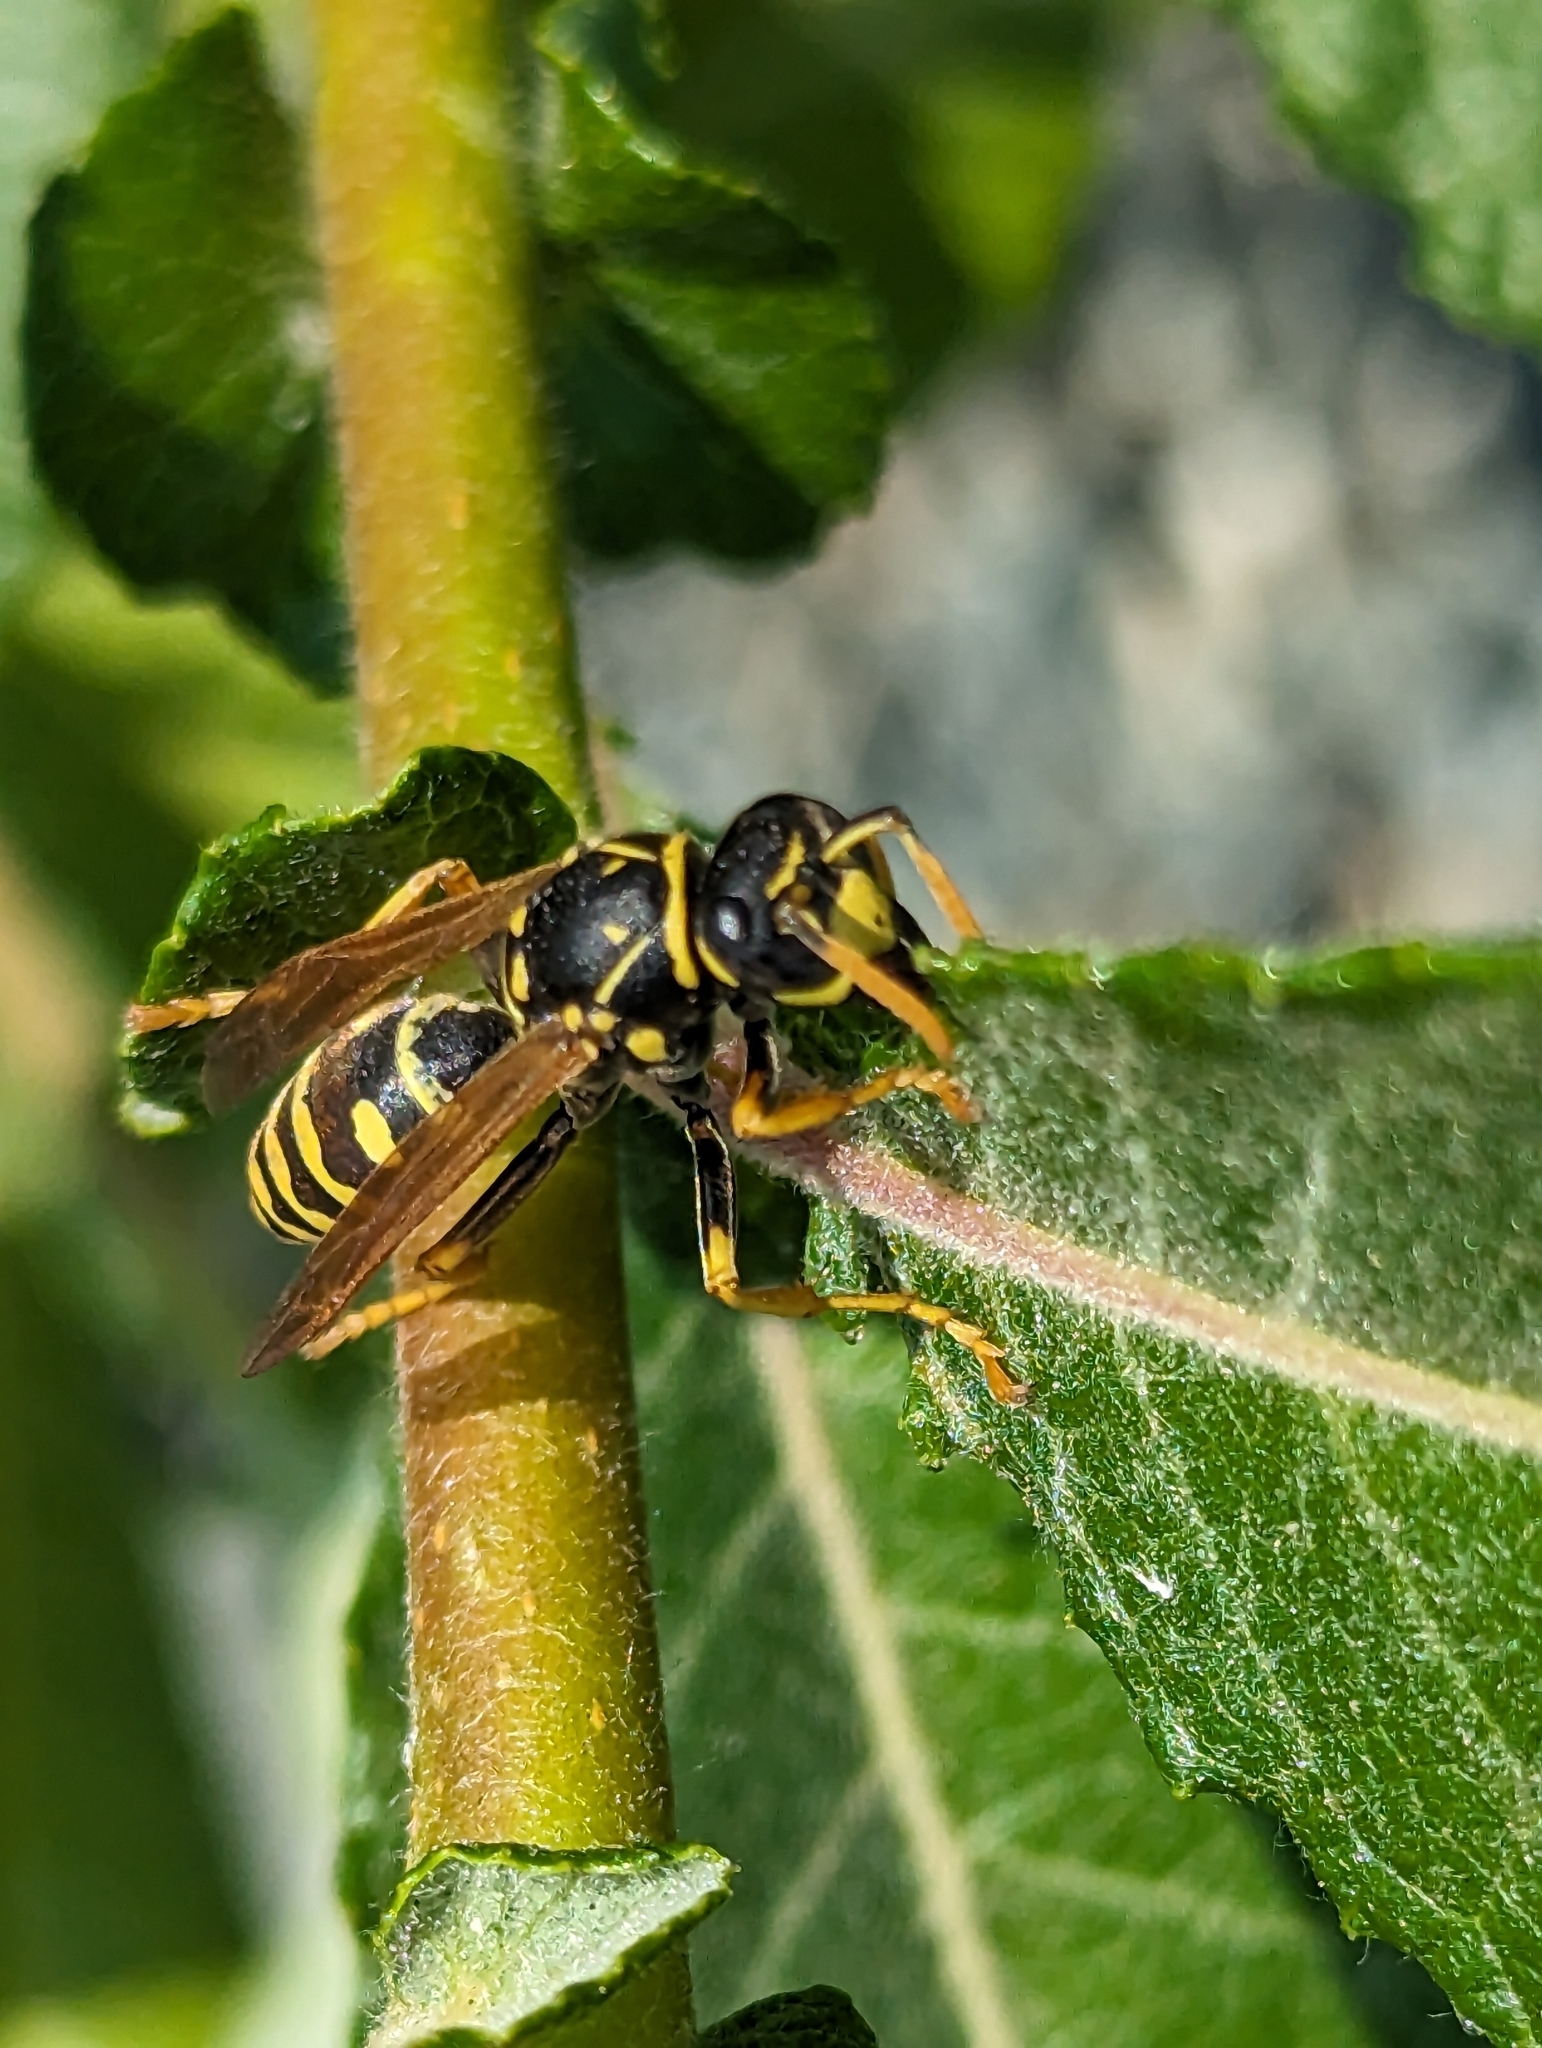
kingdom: Animalia
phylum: Arthropoda
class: Insecta
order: Hymenoptera
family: Eumenidae
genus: Polistes
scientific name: Polistes dominula
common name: Paper wasp
